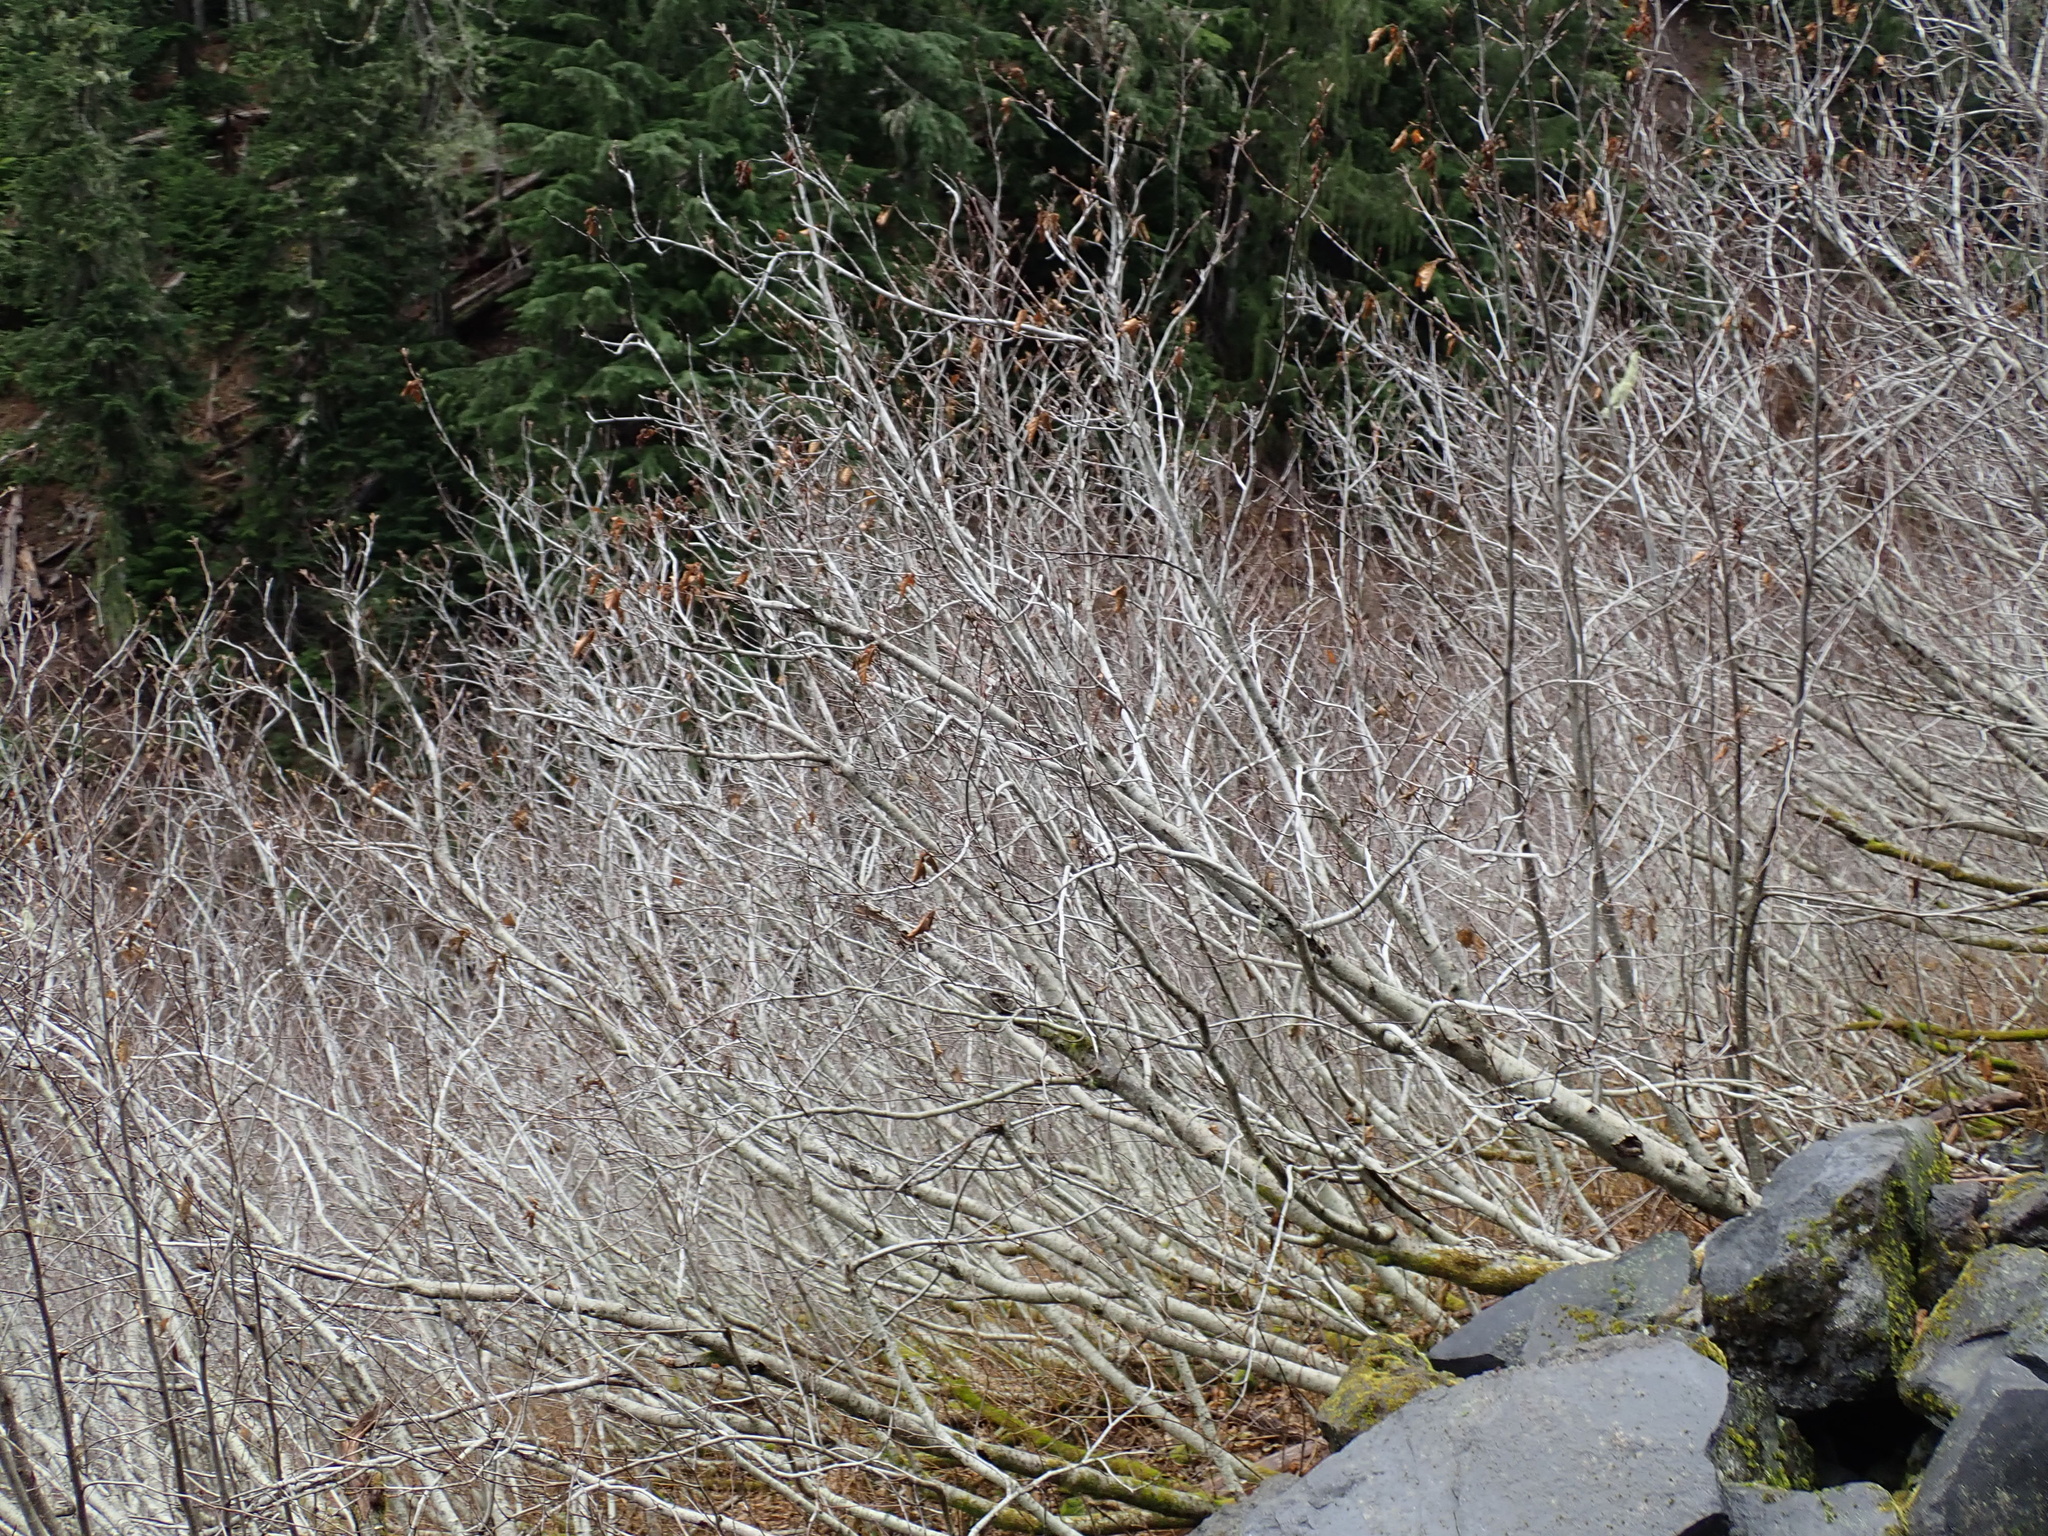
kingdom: Plantae
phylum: Tracheophyta
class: Magnoliopsida
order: Fagales
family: Betulaceae
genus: Alnus
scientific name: Alnus alnobetula
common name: Green alder
